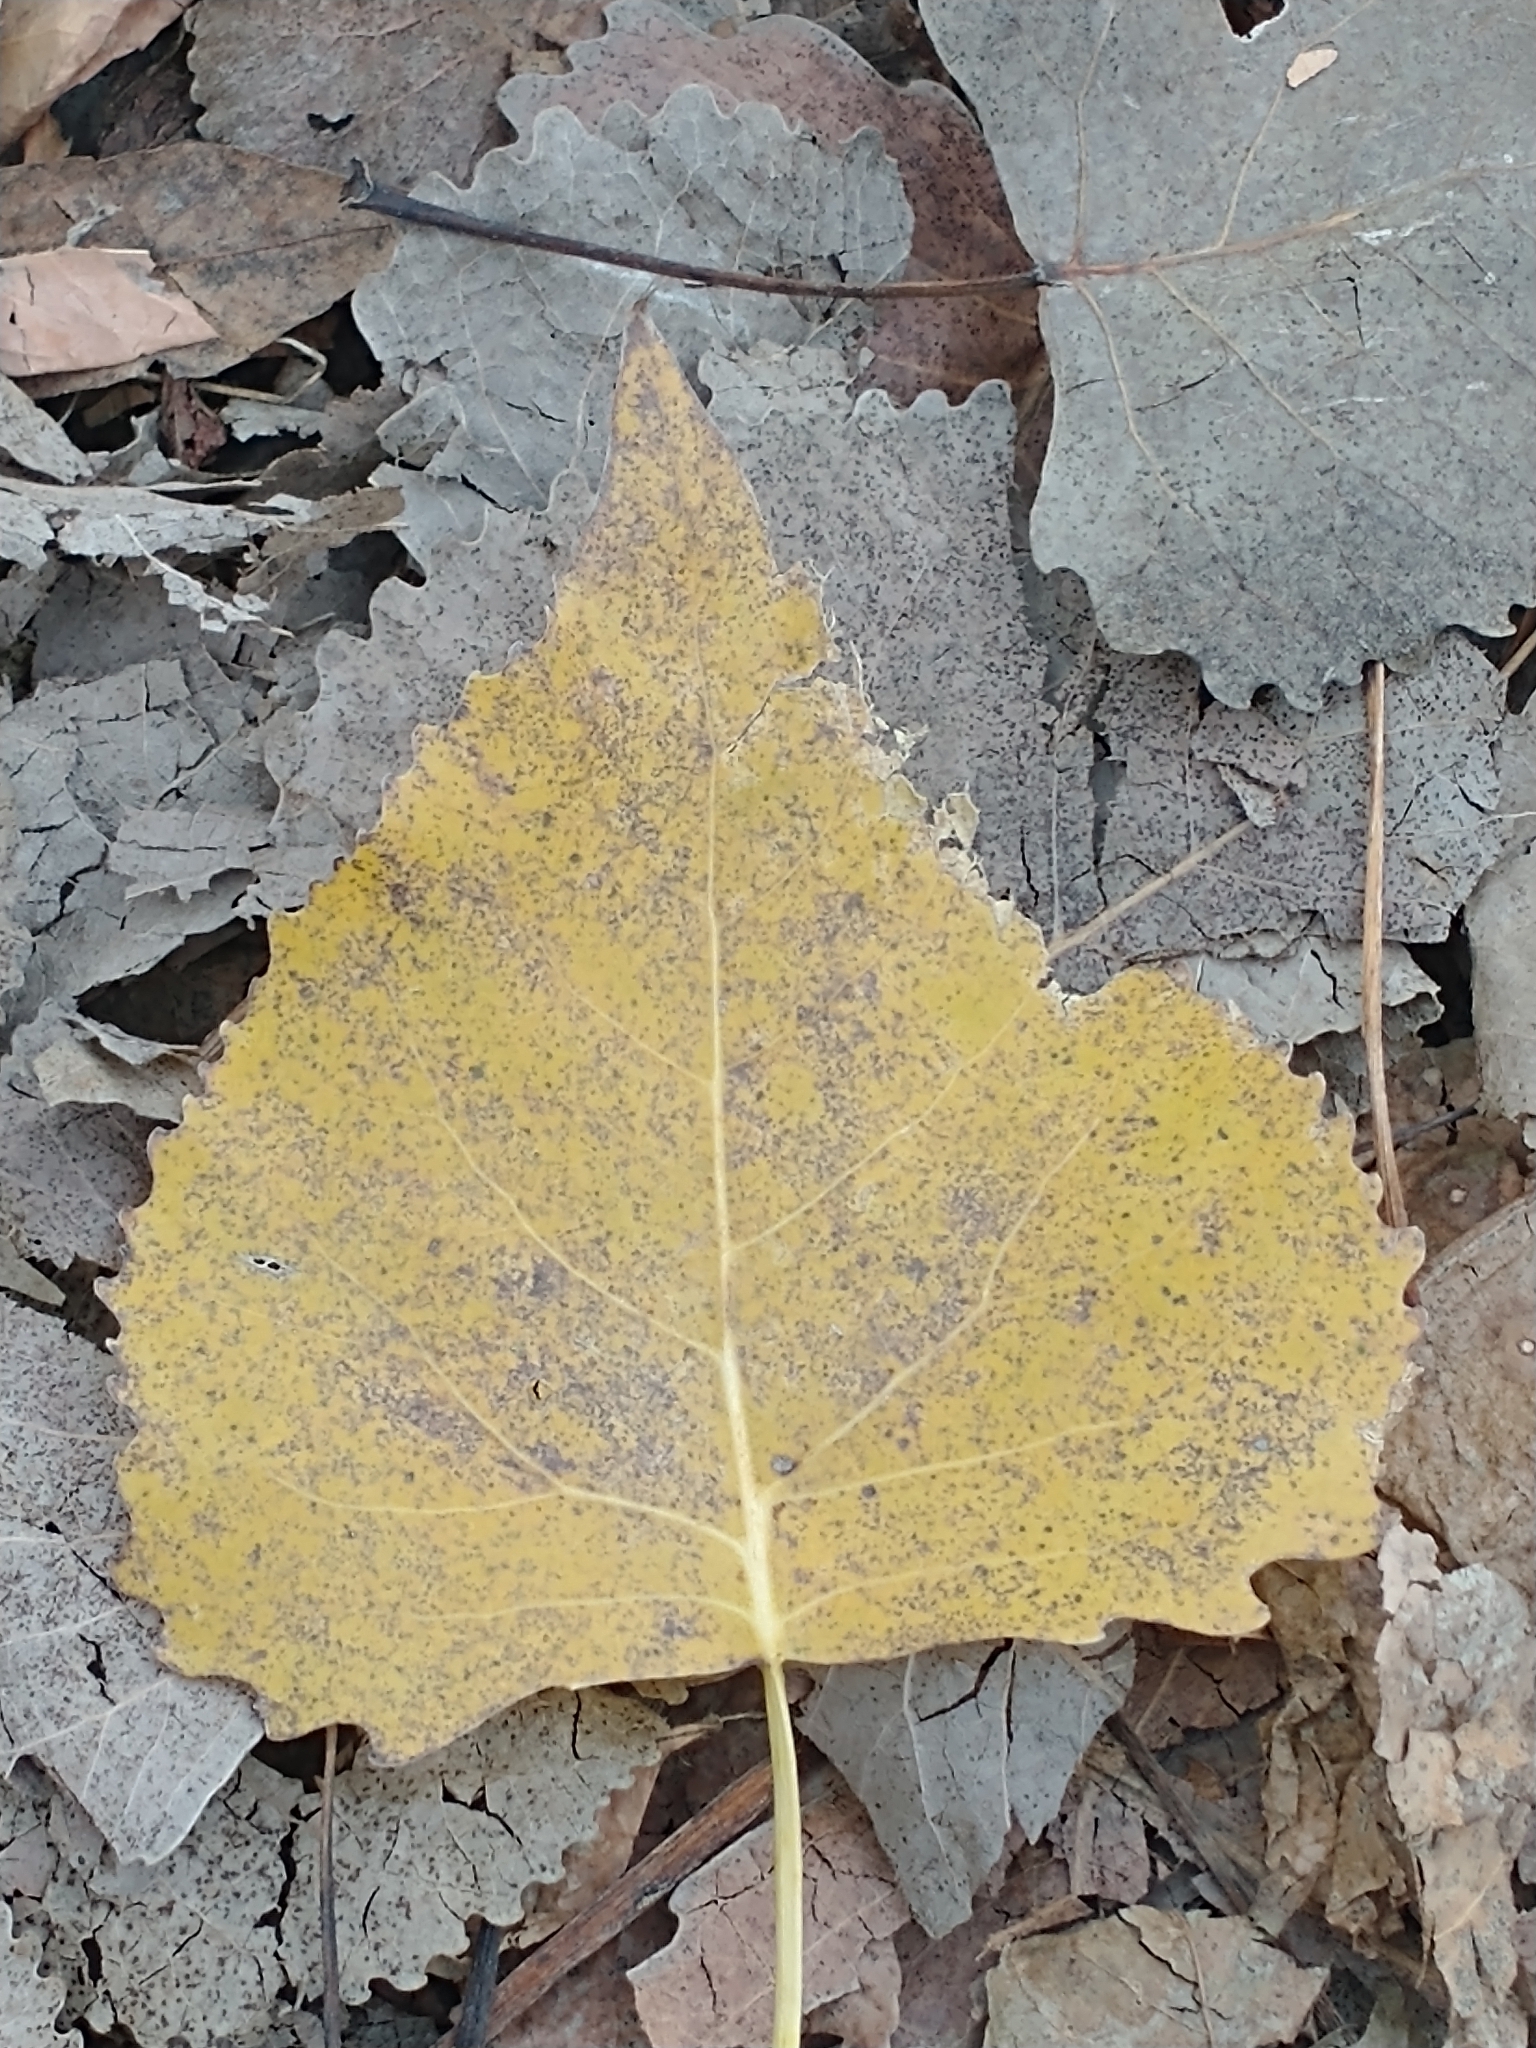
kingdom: Plantae
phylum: Tracheophyta
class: Magnoliopsida
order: Malpighiales
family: Salicaceae
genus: Populus
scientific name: Populus deltoides
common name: Eastern cottonwood
